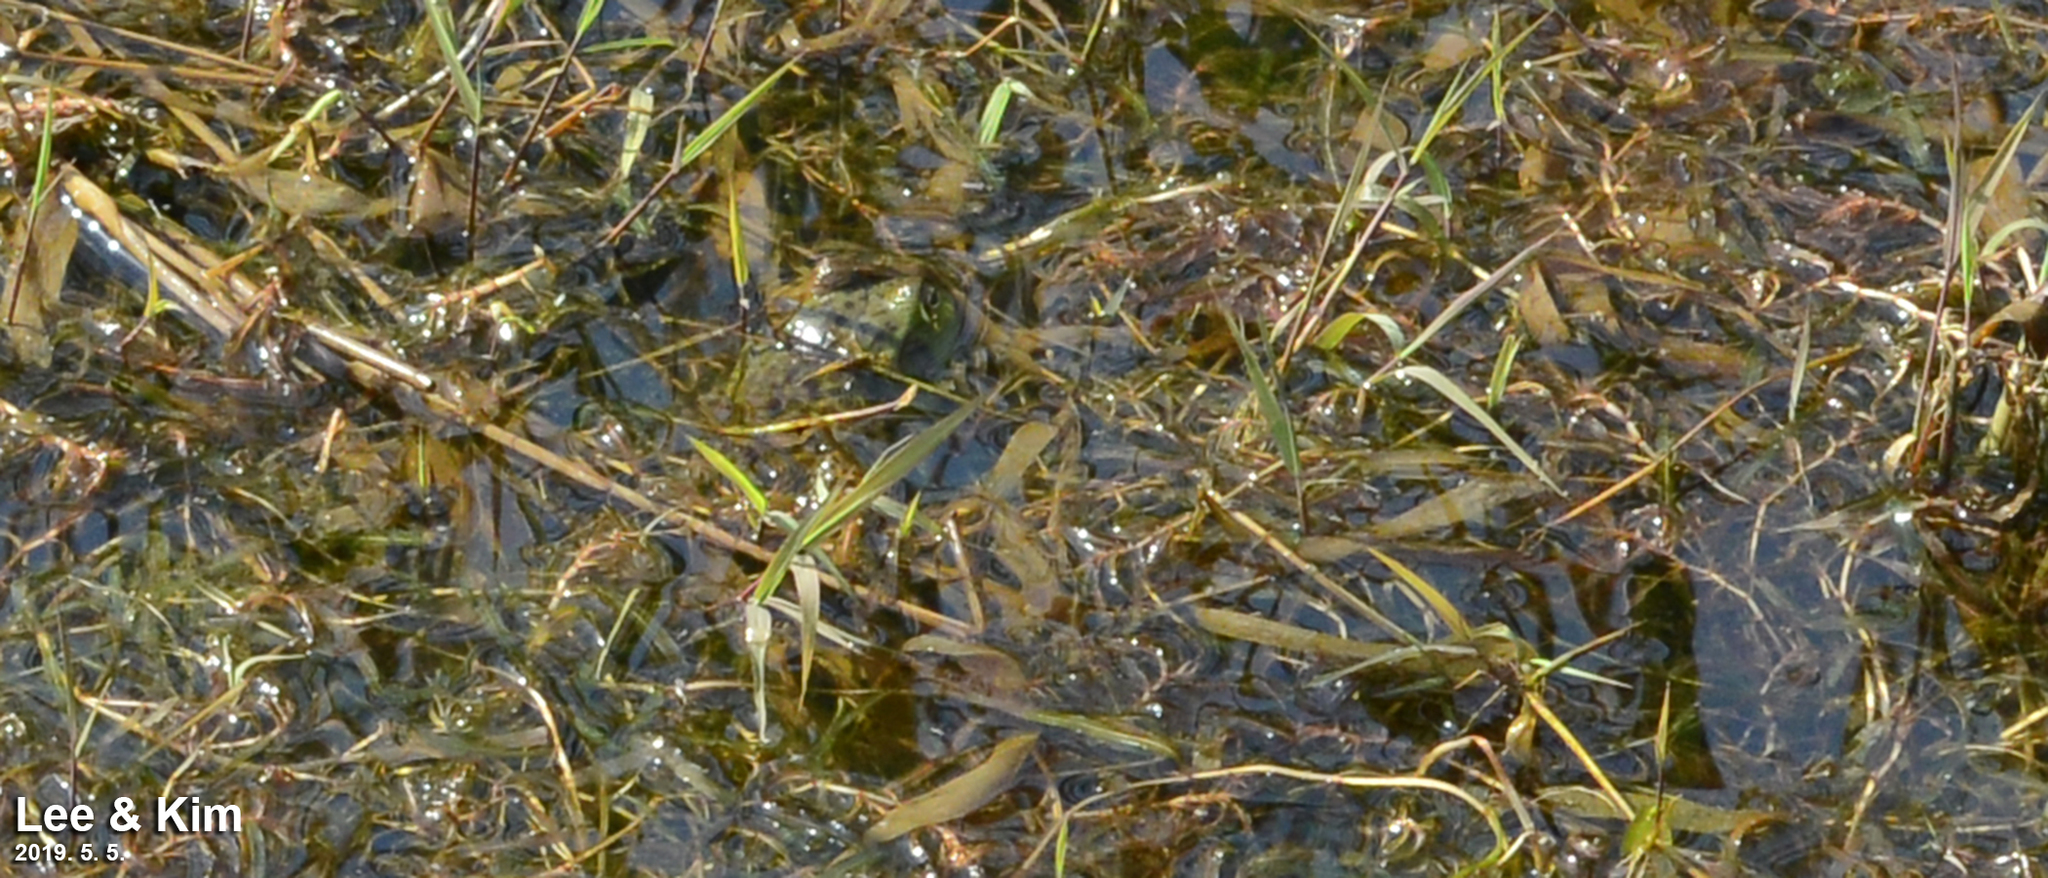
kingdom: Animalia
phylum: Chordata
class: Amphibia
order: Anura
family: Ranidae
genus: Lithobates
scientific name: Lithobates catesbeianus
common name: American bullfrog
